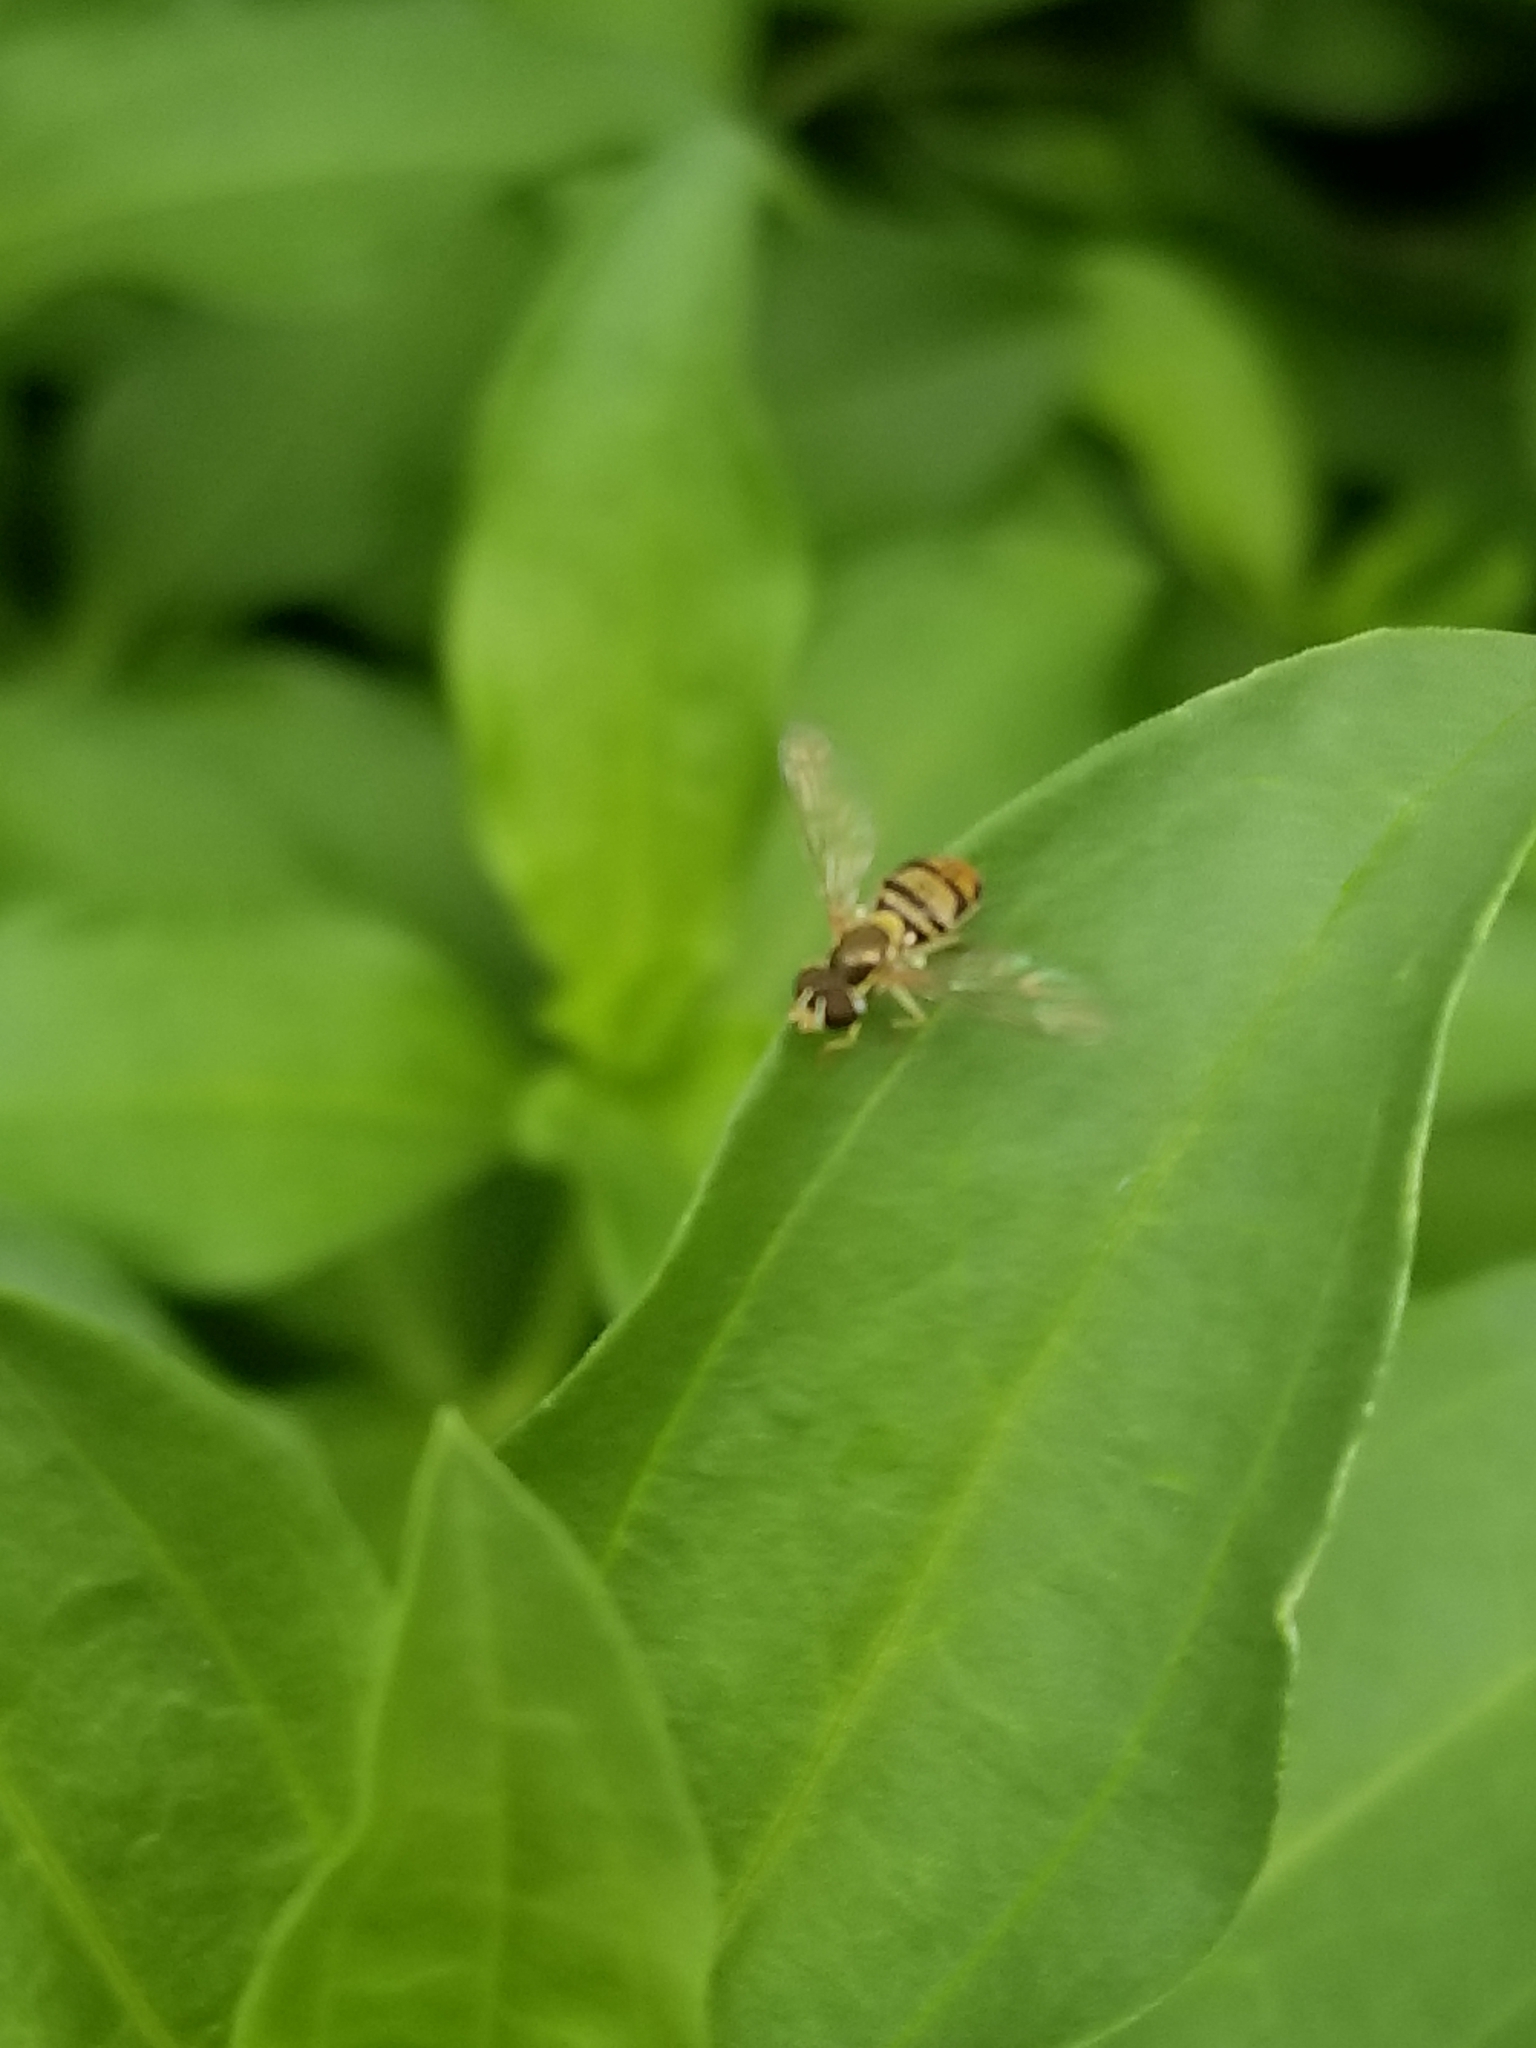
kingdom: Animalia
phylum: Arthropoda
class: Insecta
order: Diptera
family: Syrphidae
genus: Toxomerus
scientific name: Toxomerus marginatus
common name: Syrphid fly
